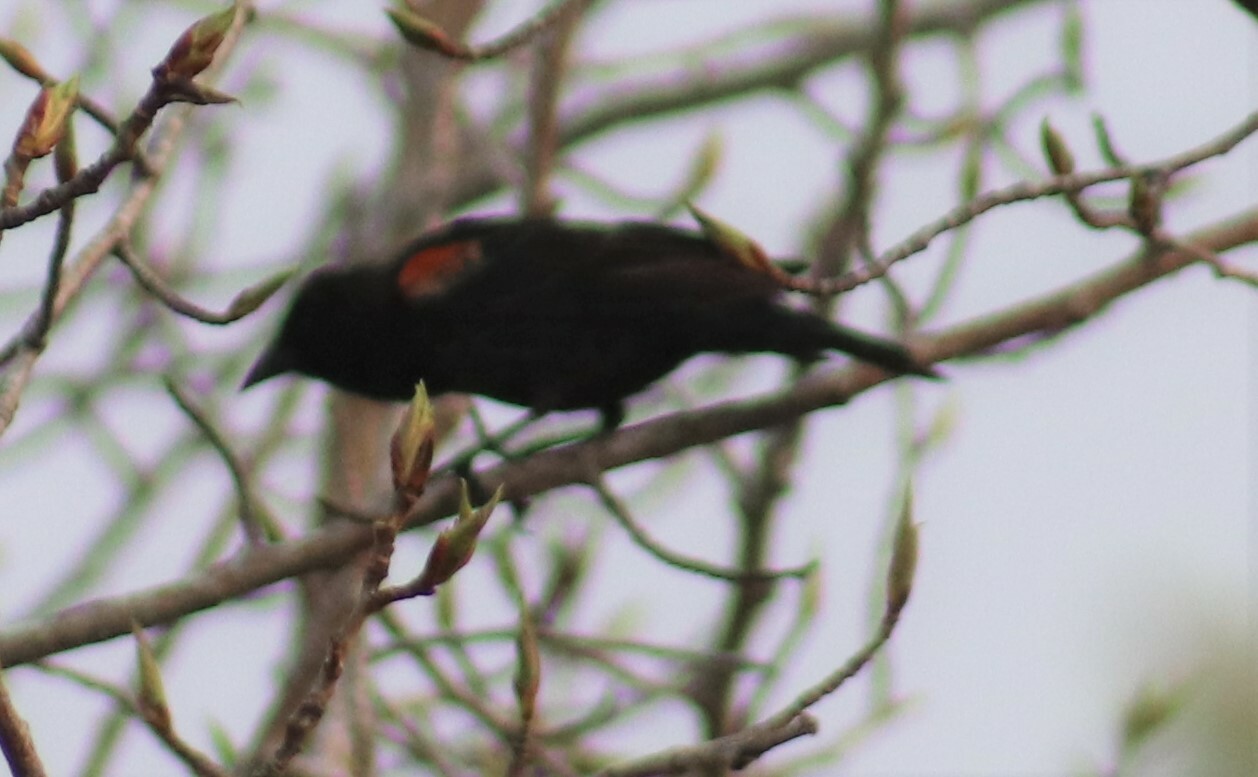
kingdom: Animalia
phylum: Chordata
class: Aves
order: Passeriformes
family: Icteridae
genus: Agelaius
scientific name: Agelaius phoeniceus
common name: Red-winged blackbird
